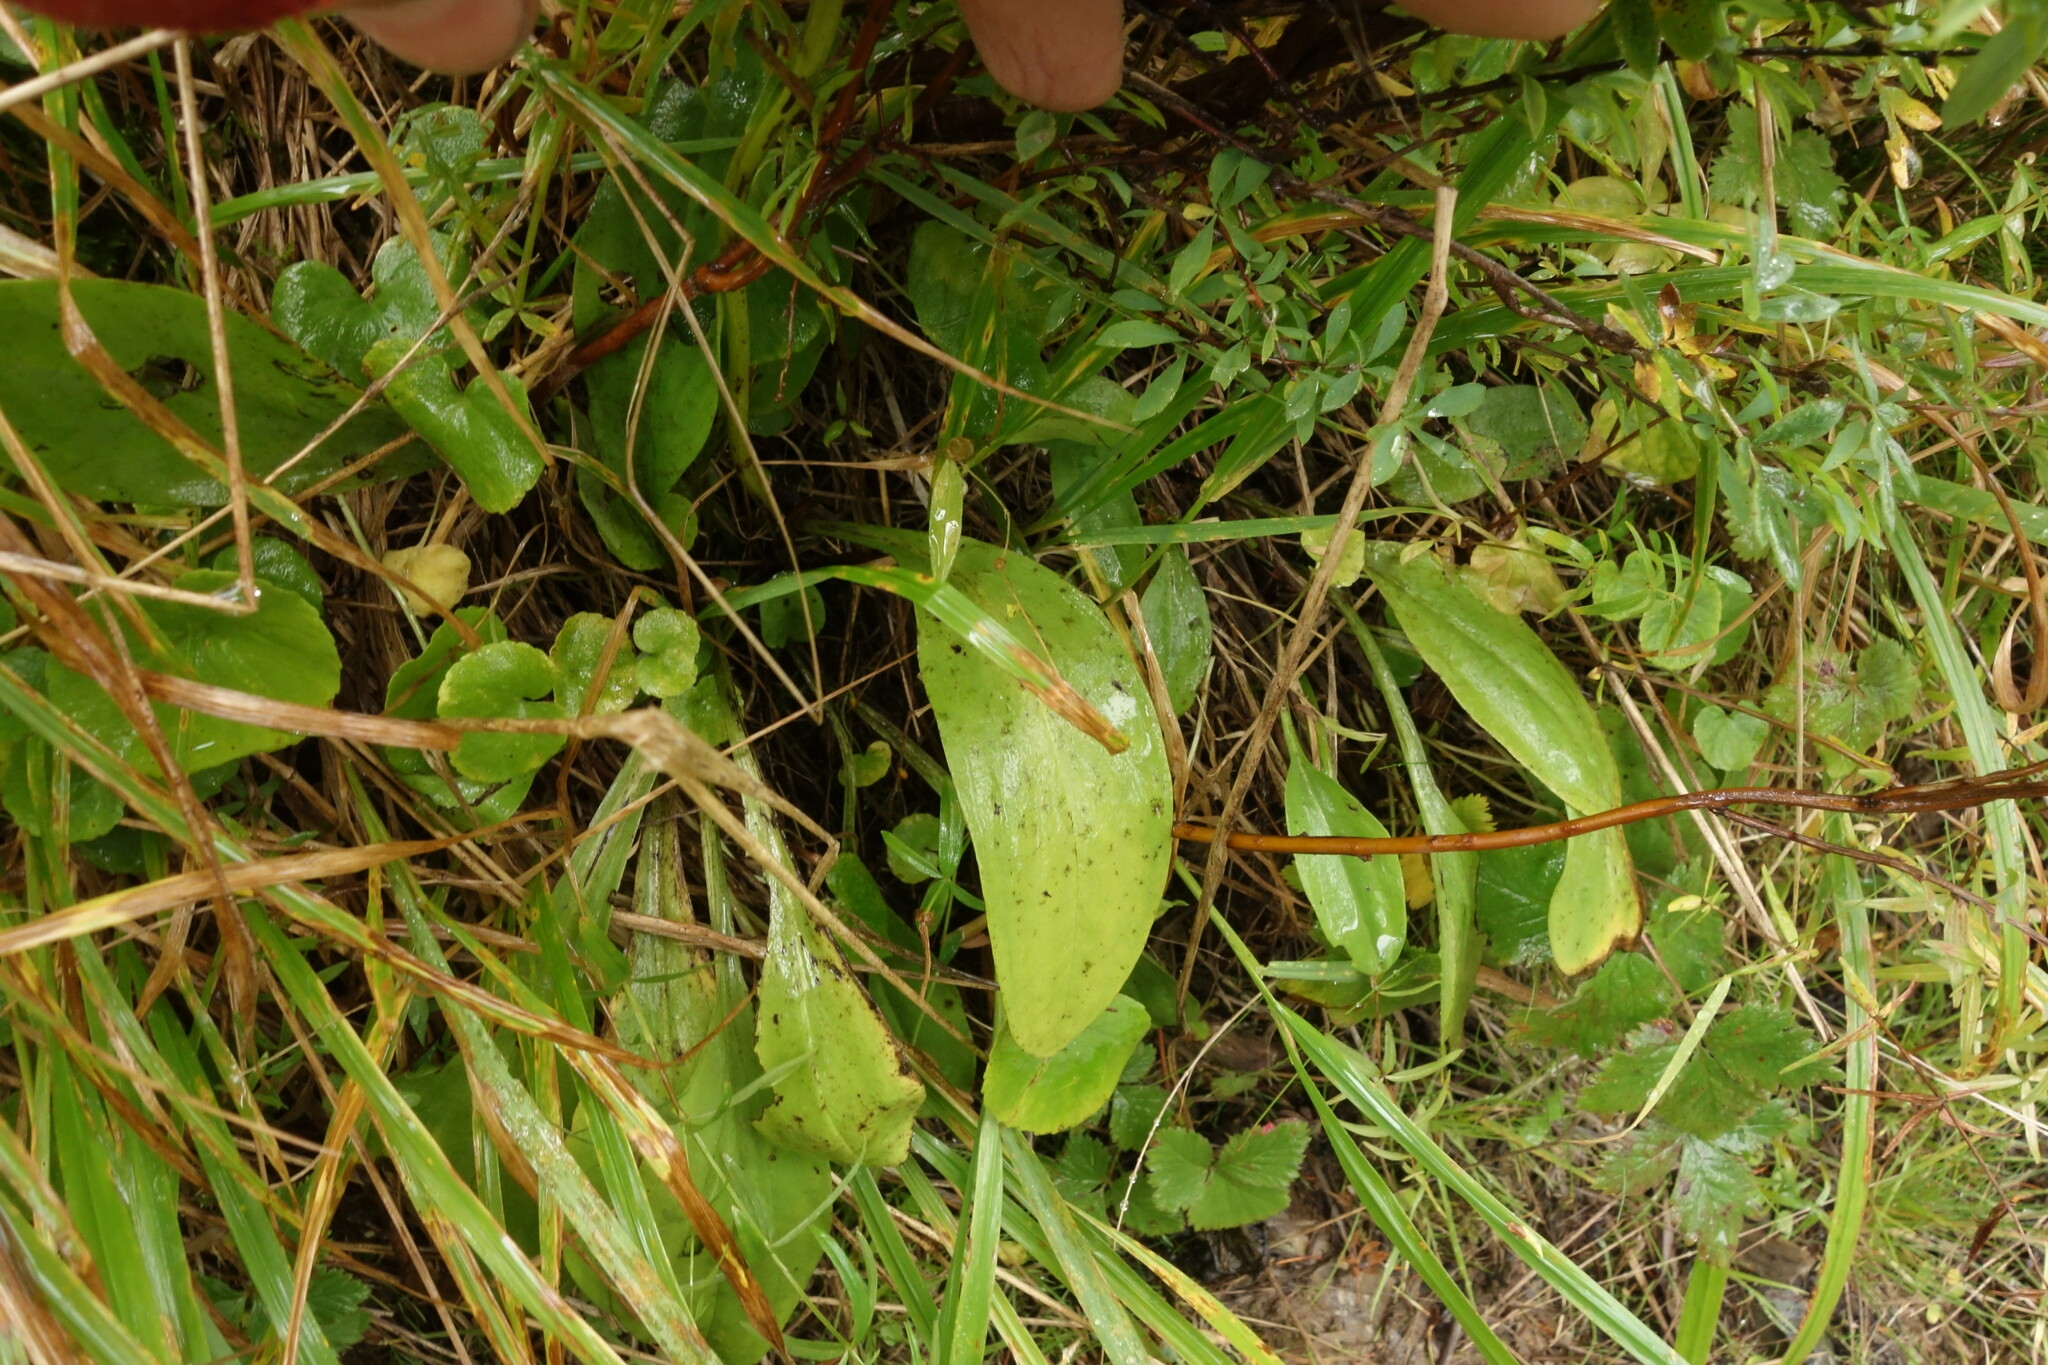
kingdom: Plantae
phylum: Tracheophyta
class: Magnoliopsida
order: Gentianales
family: Gentianaceae
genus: Swertia
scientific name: Swertia obtusa
